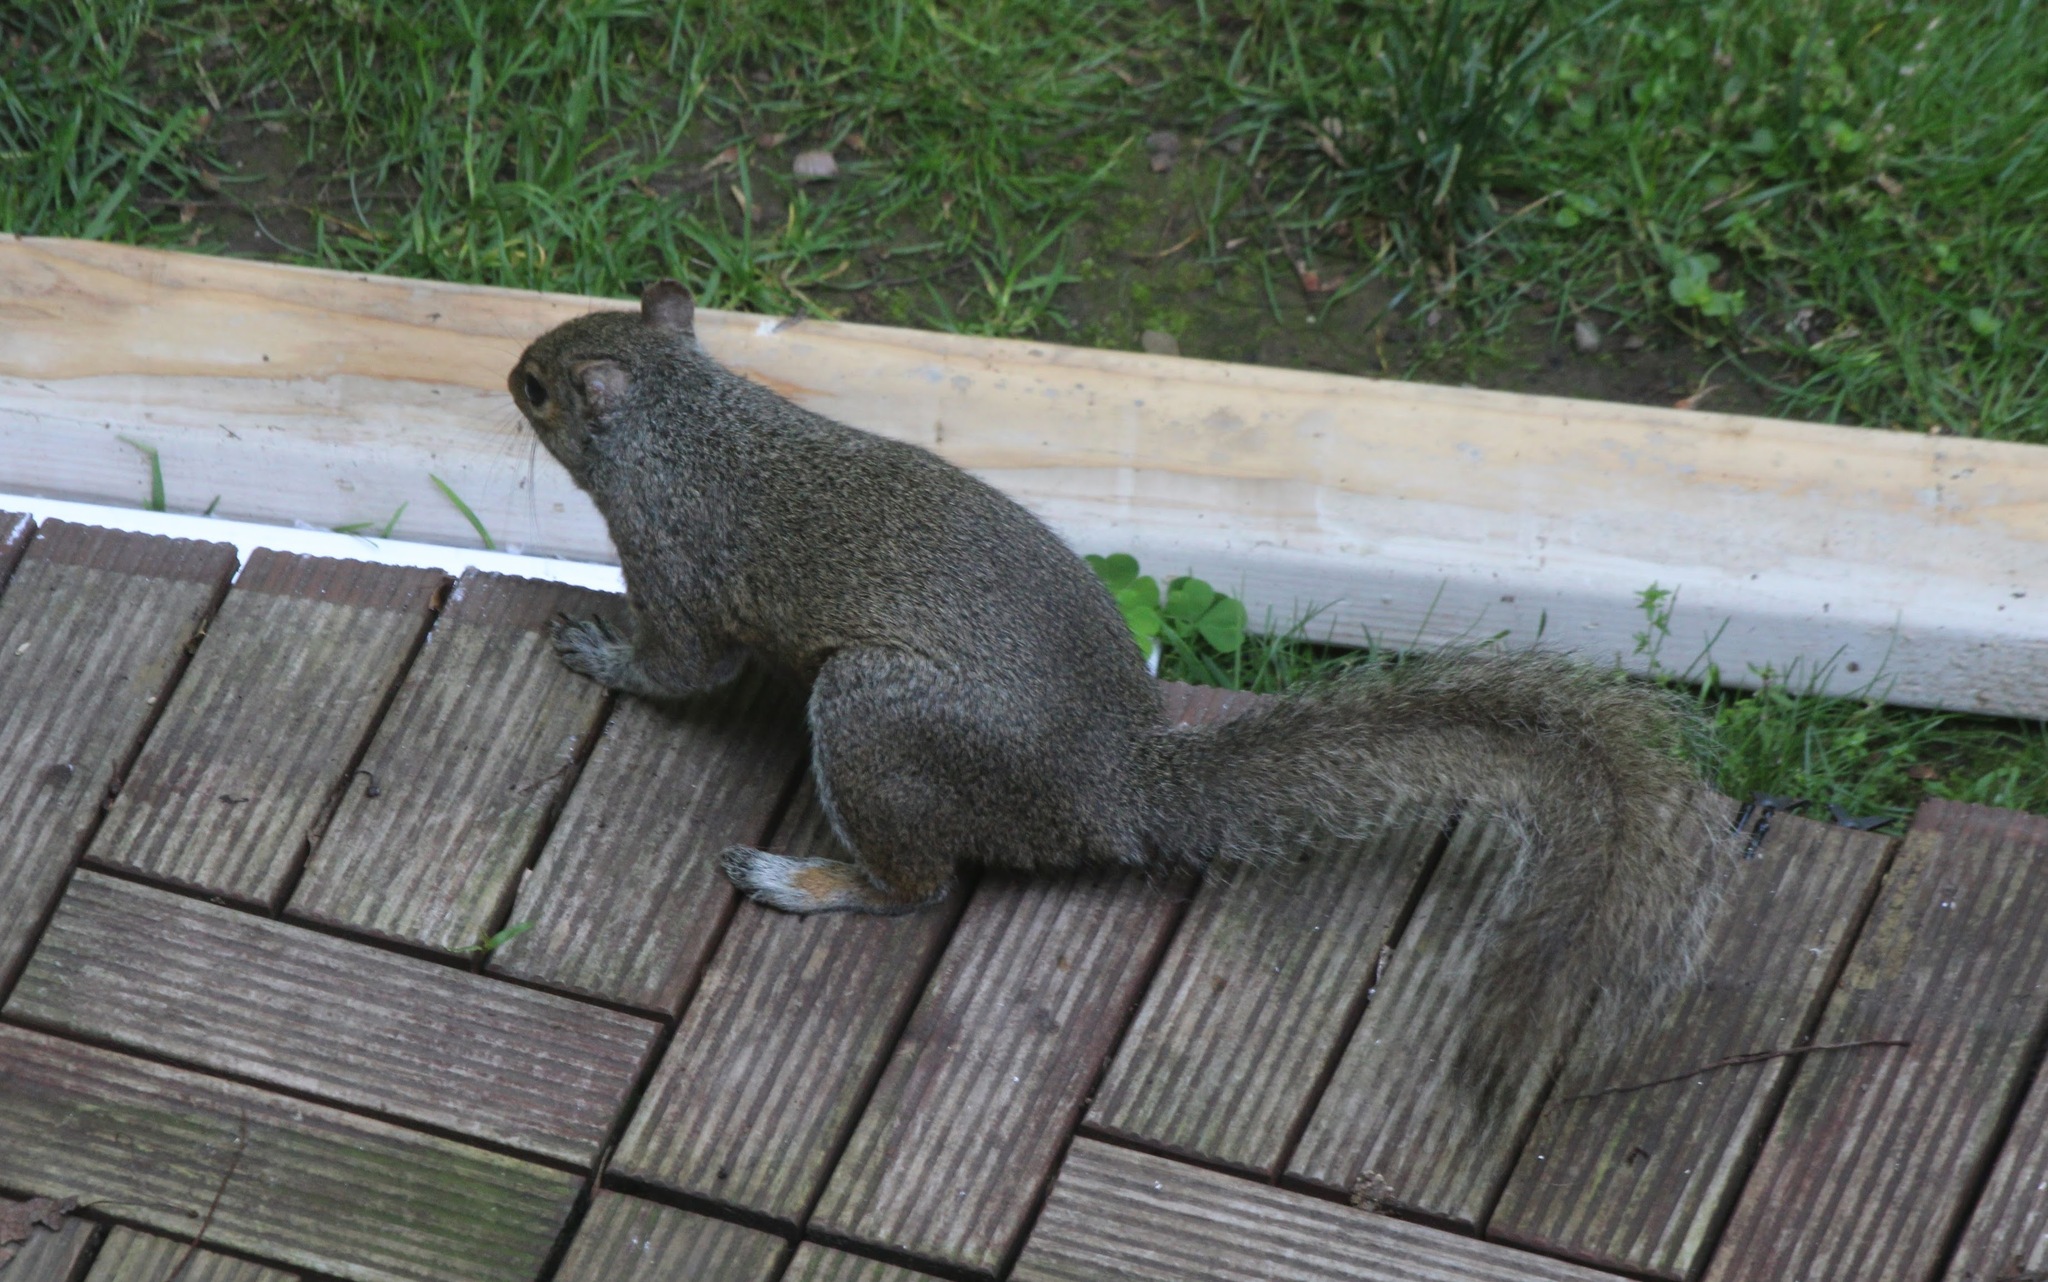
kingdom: Animalia
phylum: Chordata
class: Mammalia
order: Rodentia
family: Sciuridae
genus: Sciurus
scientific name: Sciurus carolinensis
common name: Eastern gray squirrel
